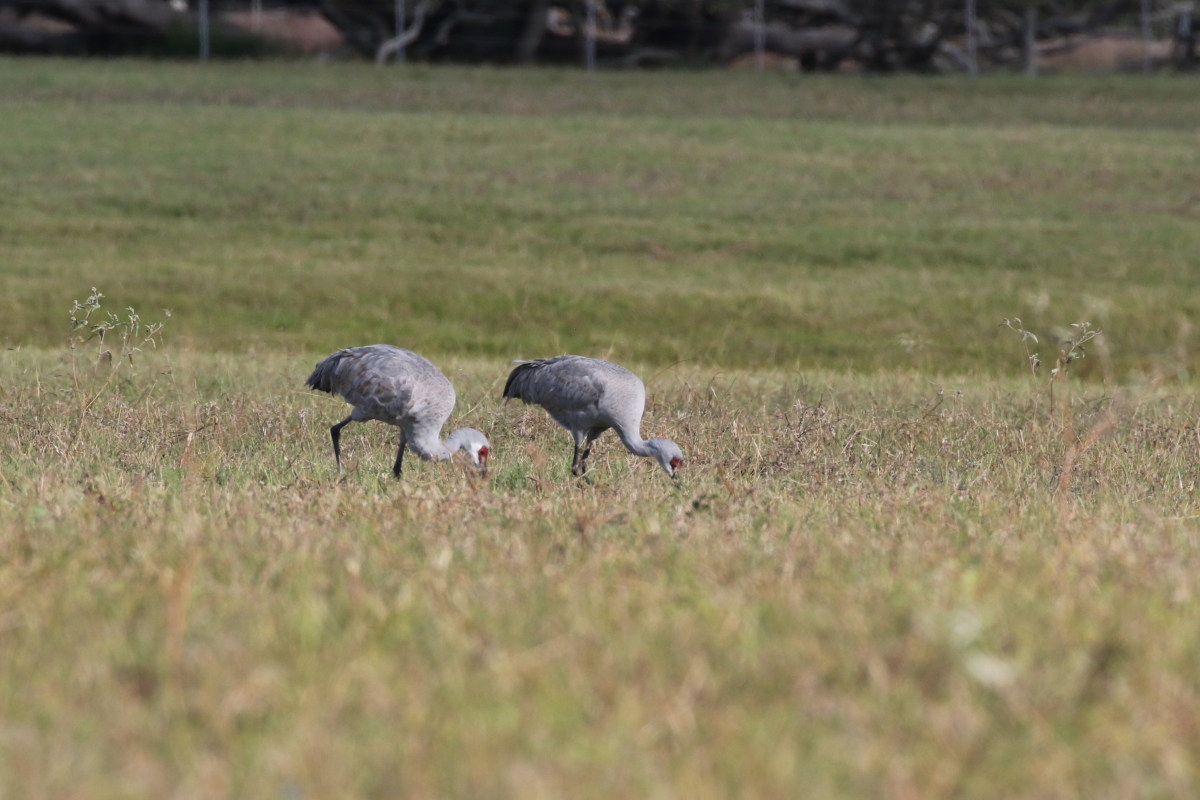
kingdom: Animalia
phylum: Chordata
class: Aves
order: Gruiformes
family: Gruidae
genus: Grus
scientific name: Grus canadensis
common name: Sandhill crane
